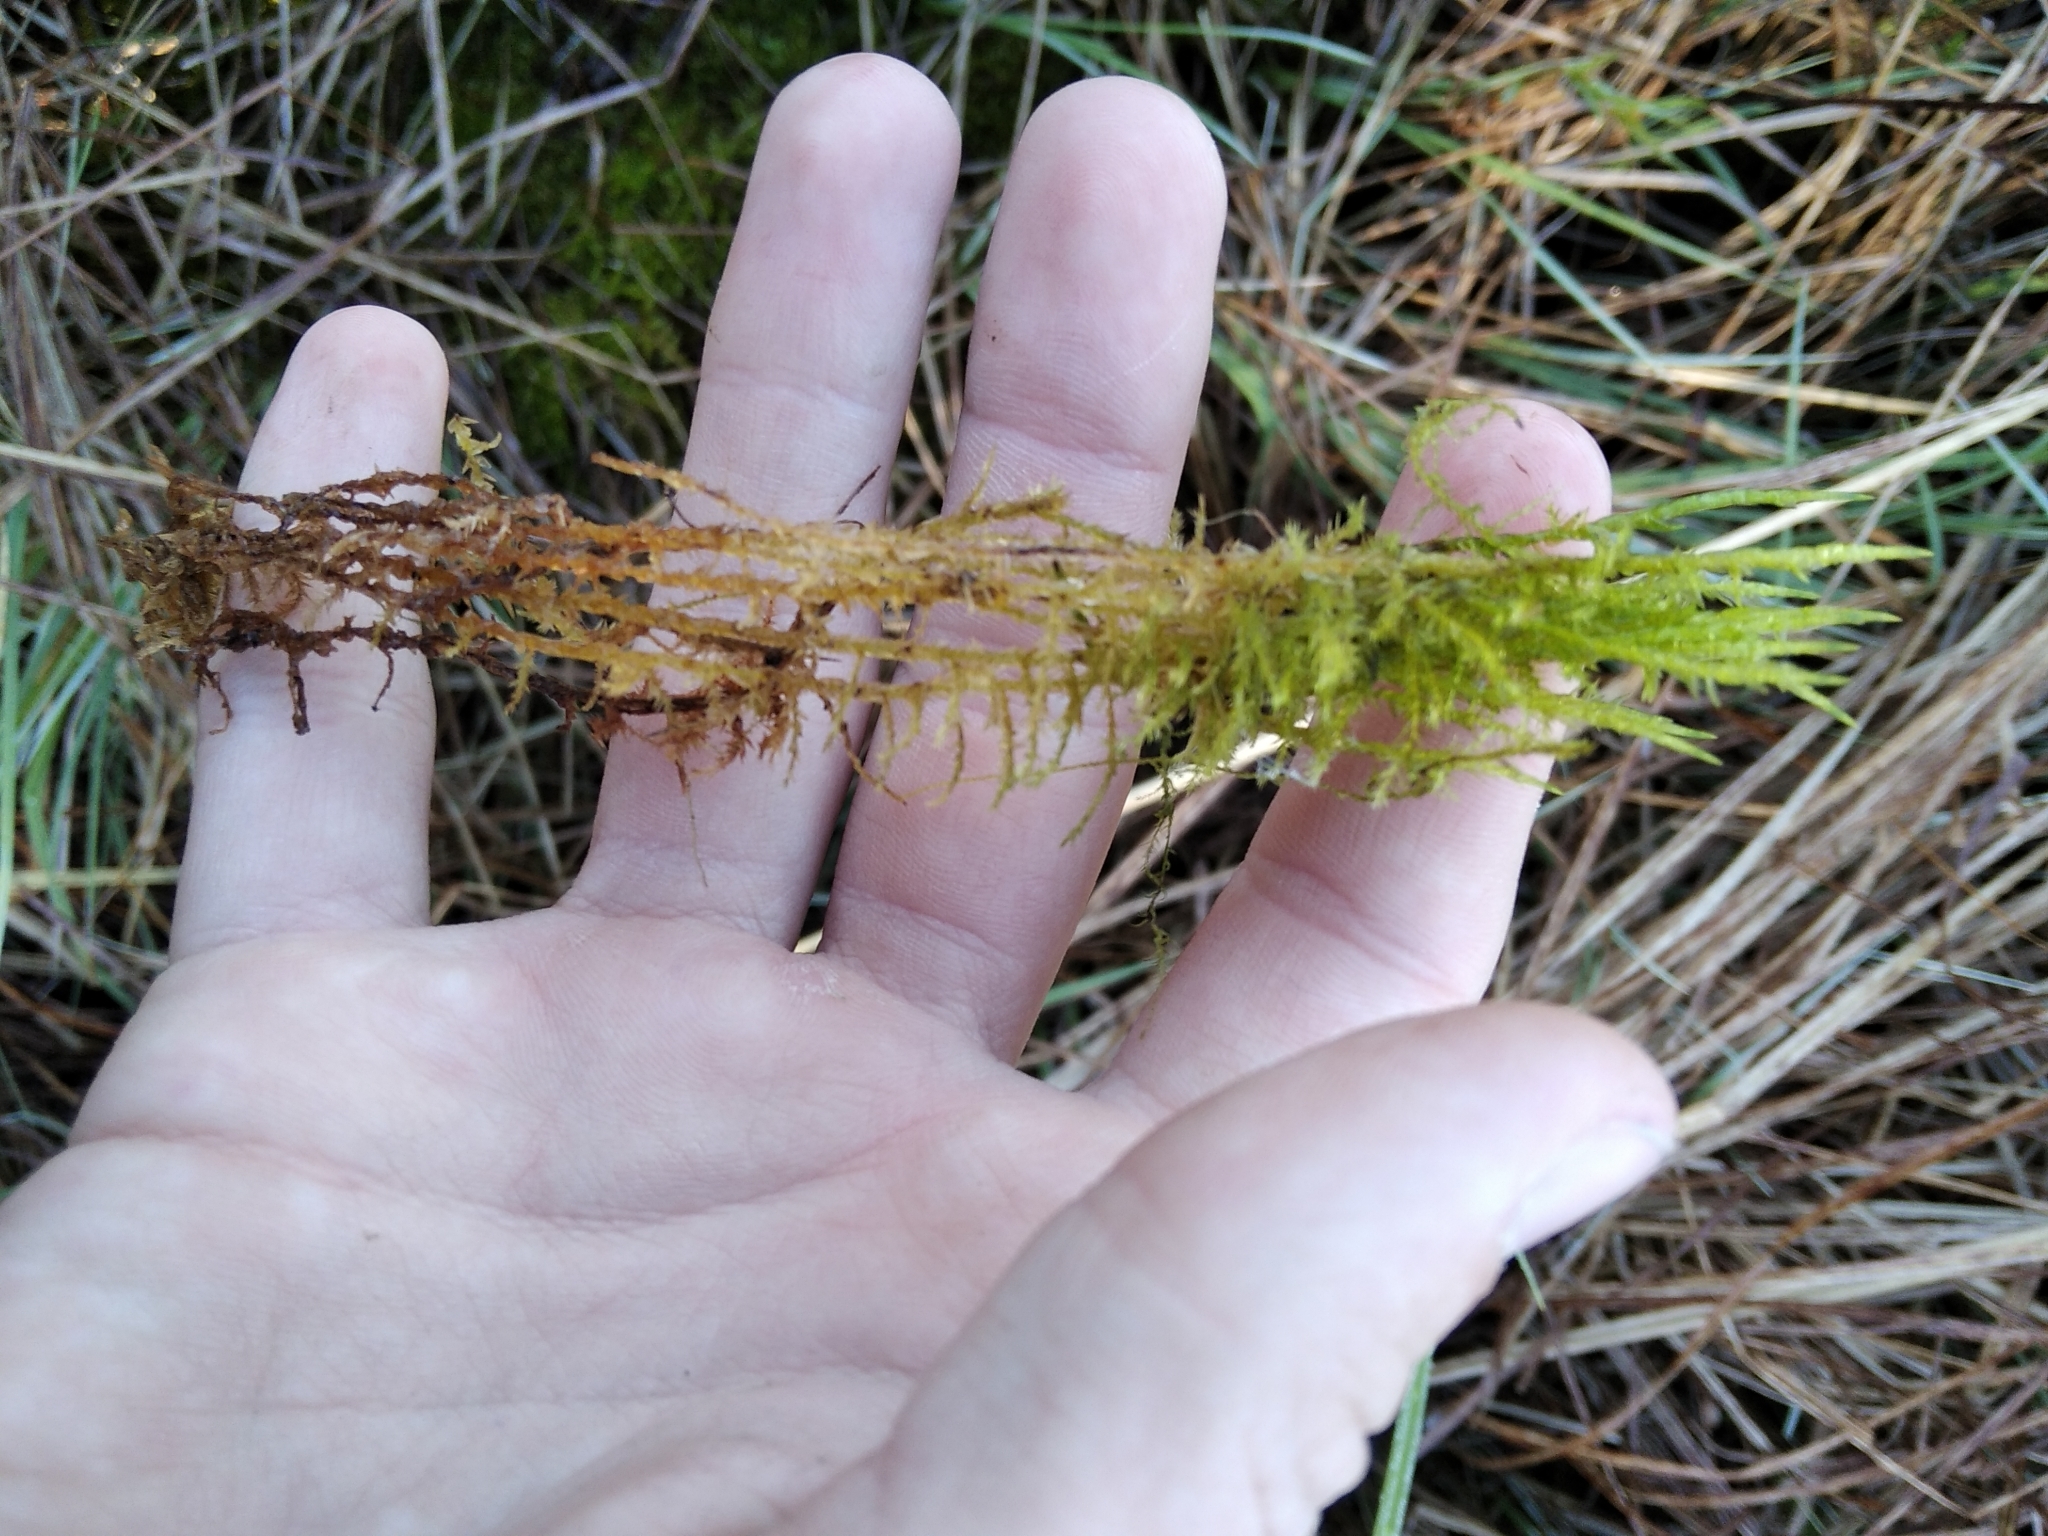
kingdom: Plantae
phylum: Bryophyta
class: Bryopsida
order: Hypnales
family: Pylaisiaceae
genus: Calliergonella
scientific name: Calliergonella cuspidata
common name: Common large wetland moss
